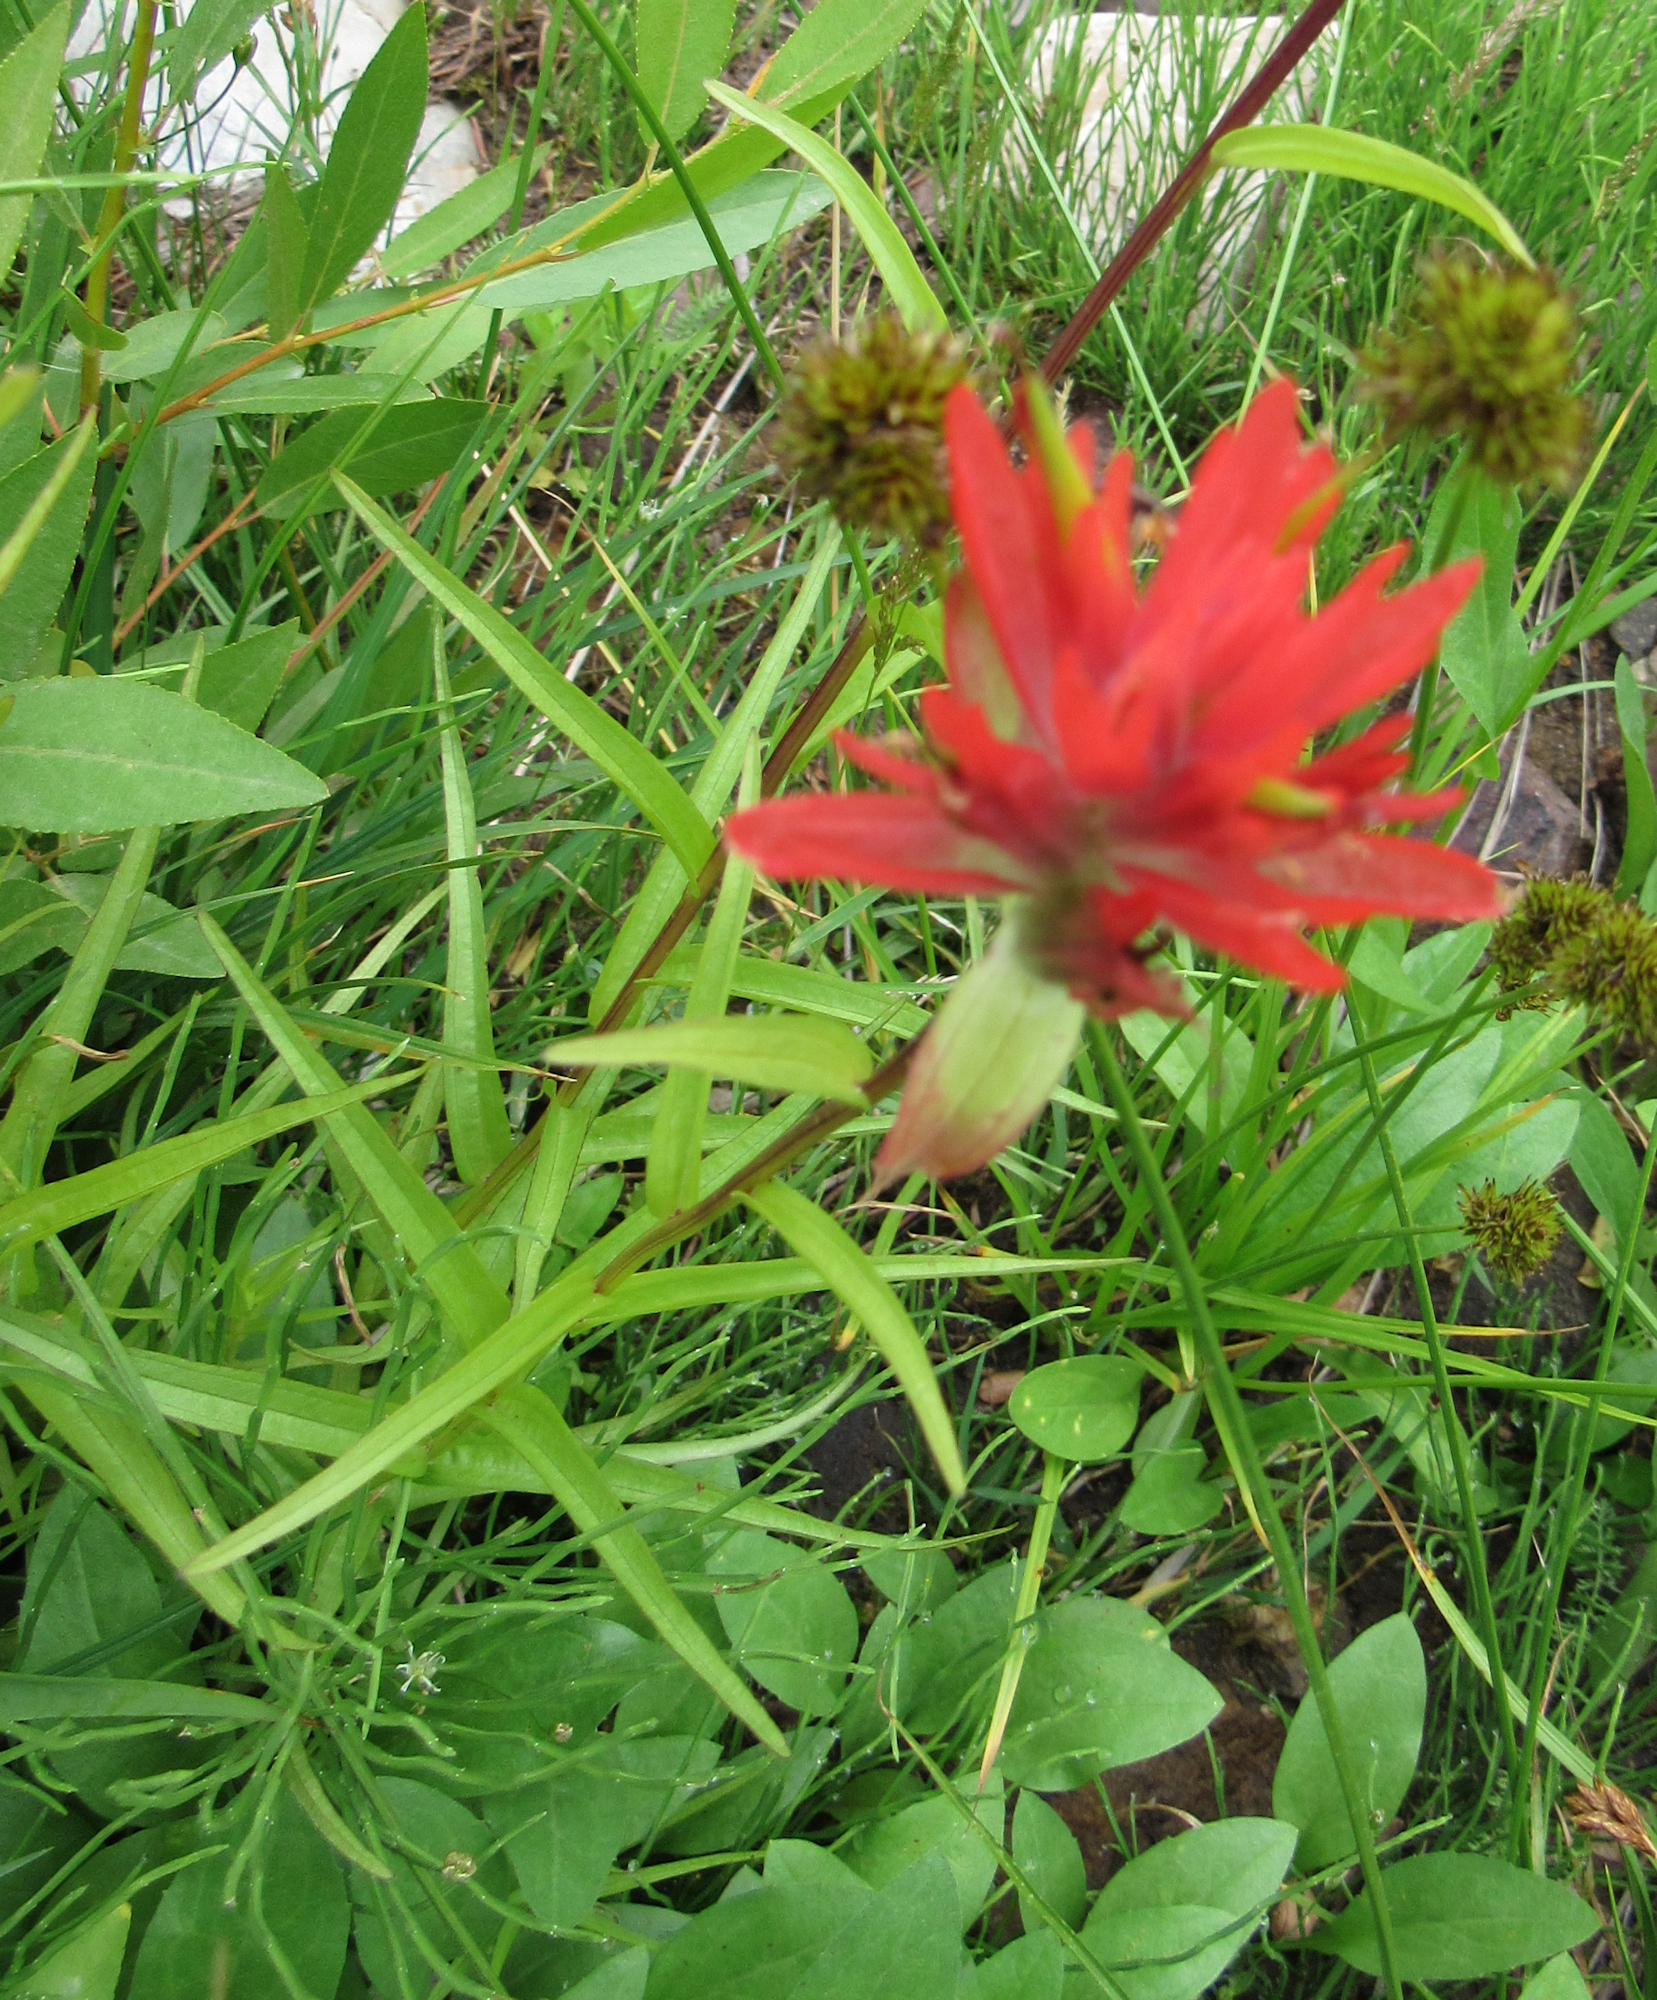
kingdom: Plantae
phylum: Tracheophyta
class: Magnoliopsida
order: Lamiales
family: Orobanchaceae
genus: Castilleja
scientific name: Castilleja miniata
